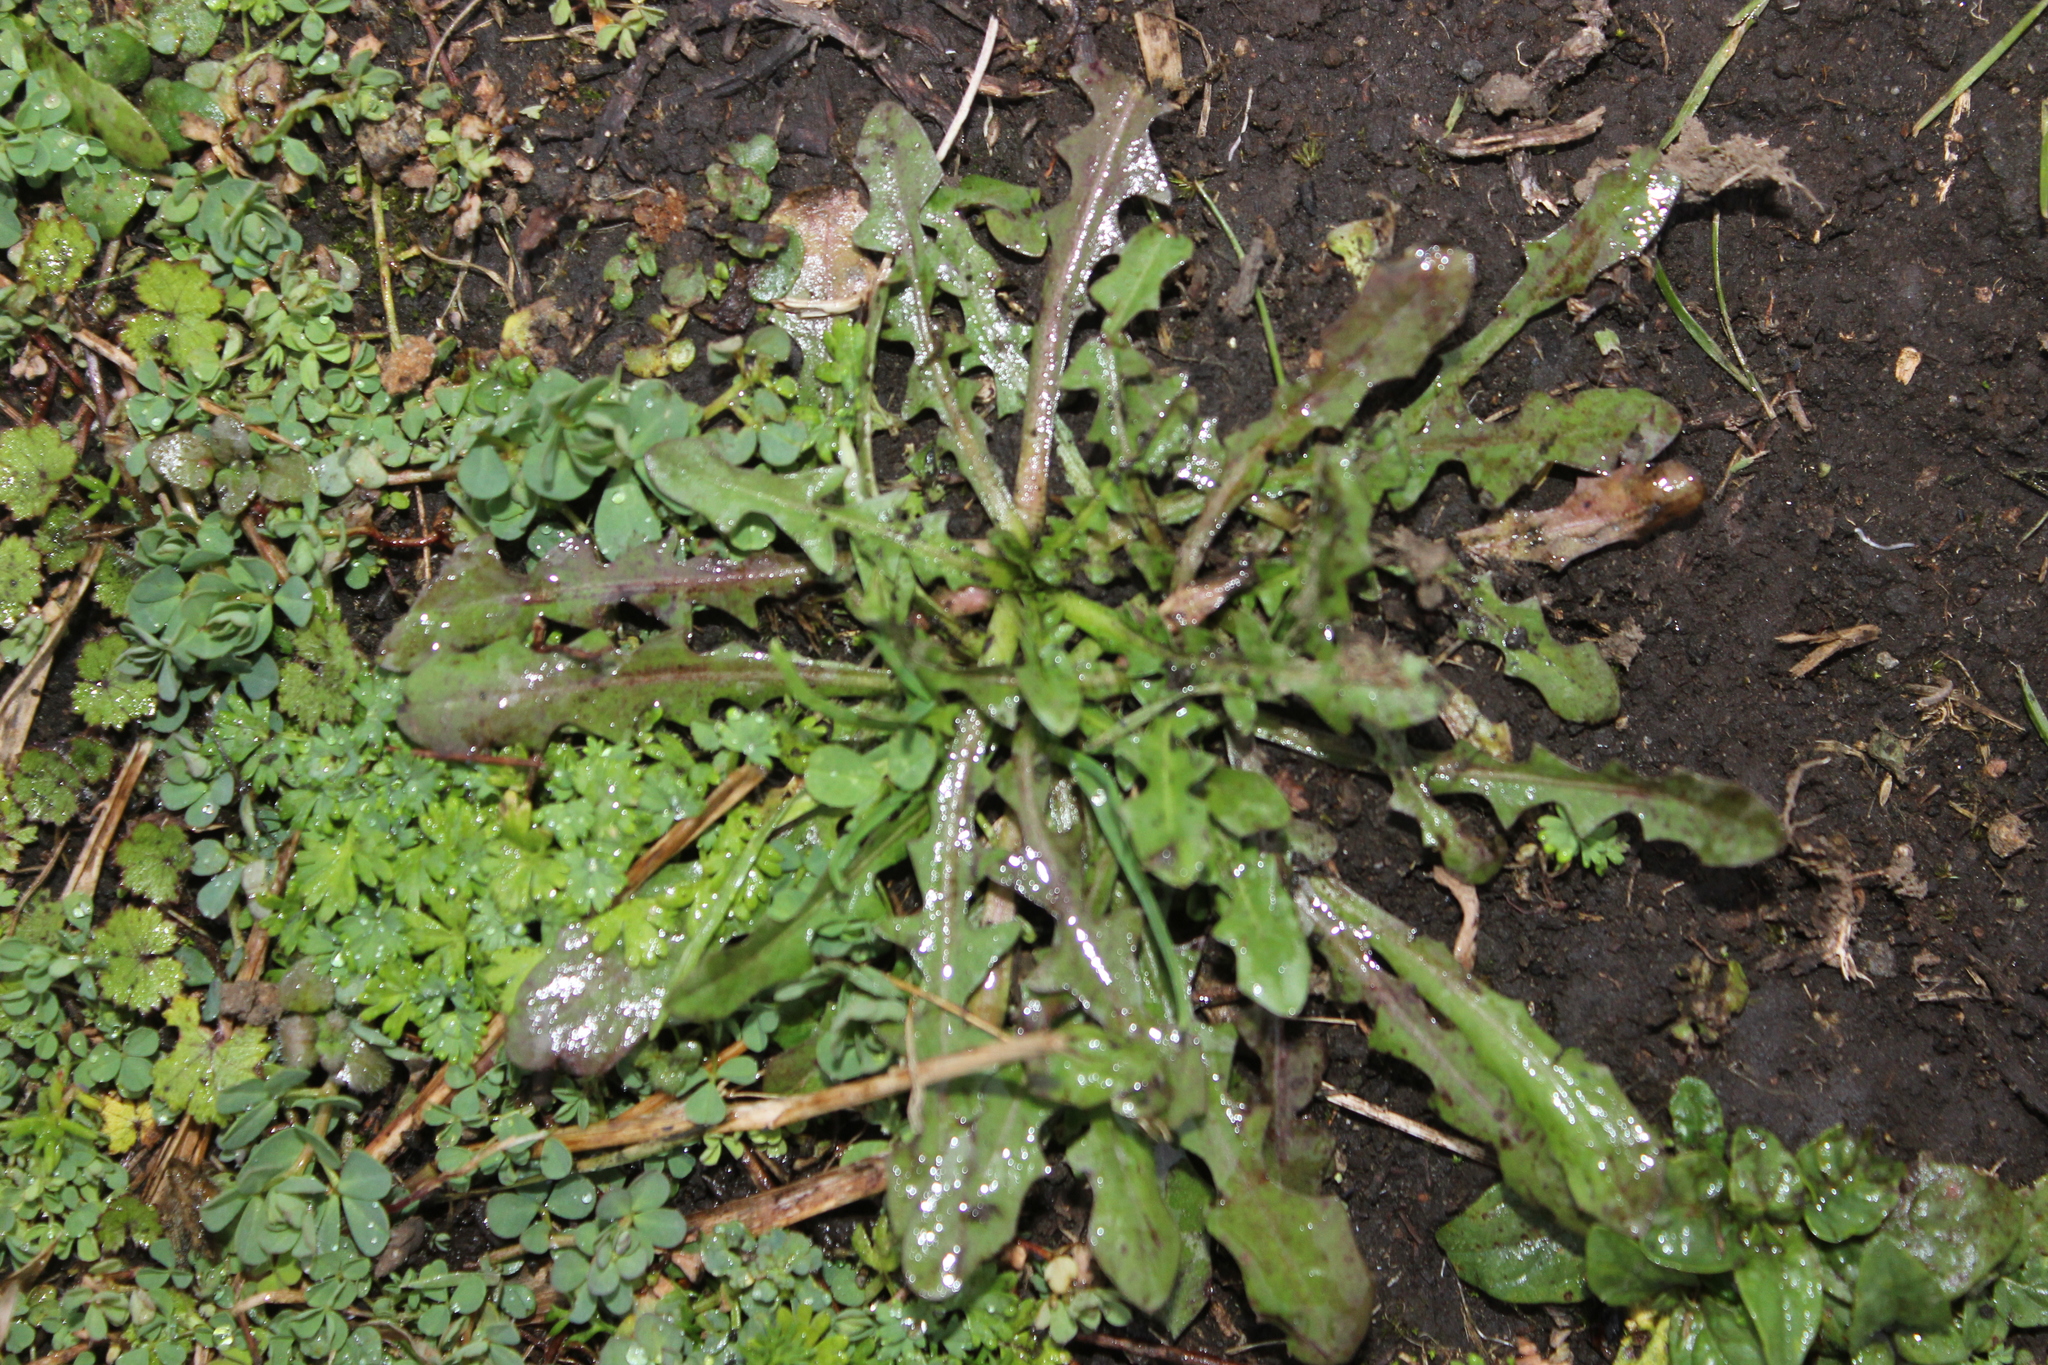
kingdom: Plantae
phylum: Tracheophyta
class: Magnoliopsida
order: Asterales
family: Asteraceae
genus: Crepis
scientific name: Crepis capillaris
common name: Smooth hawksbeard
